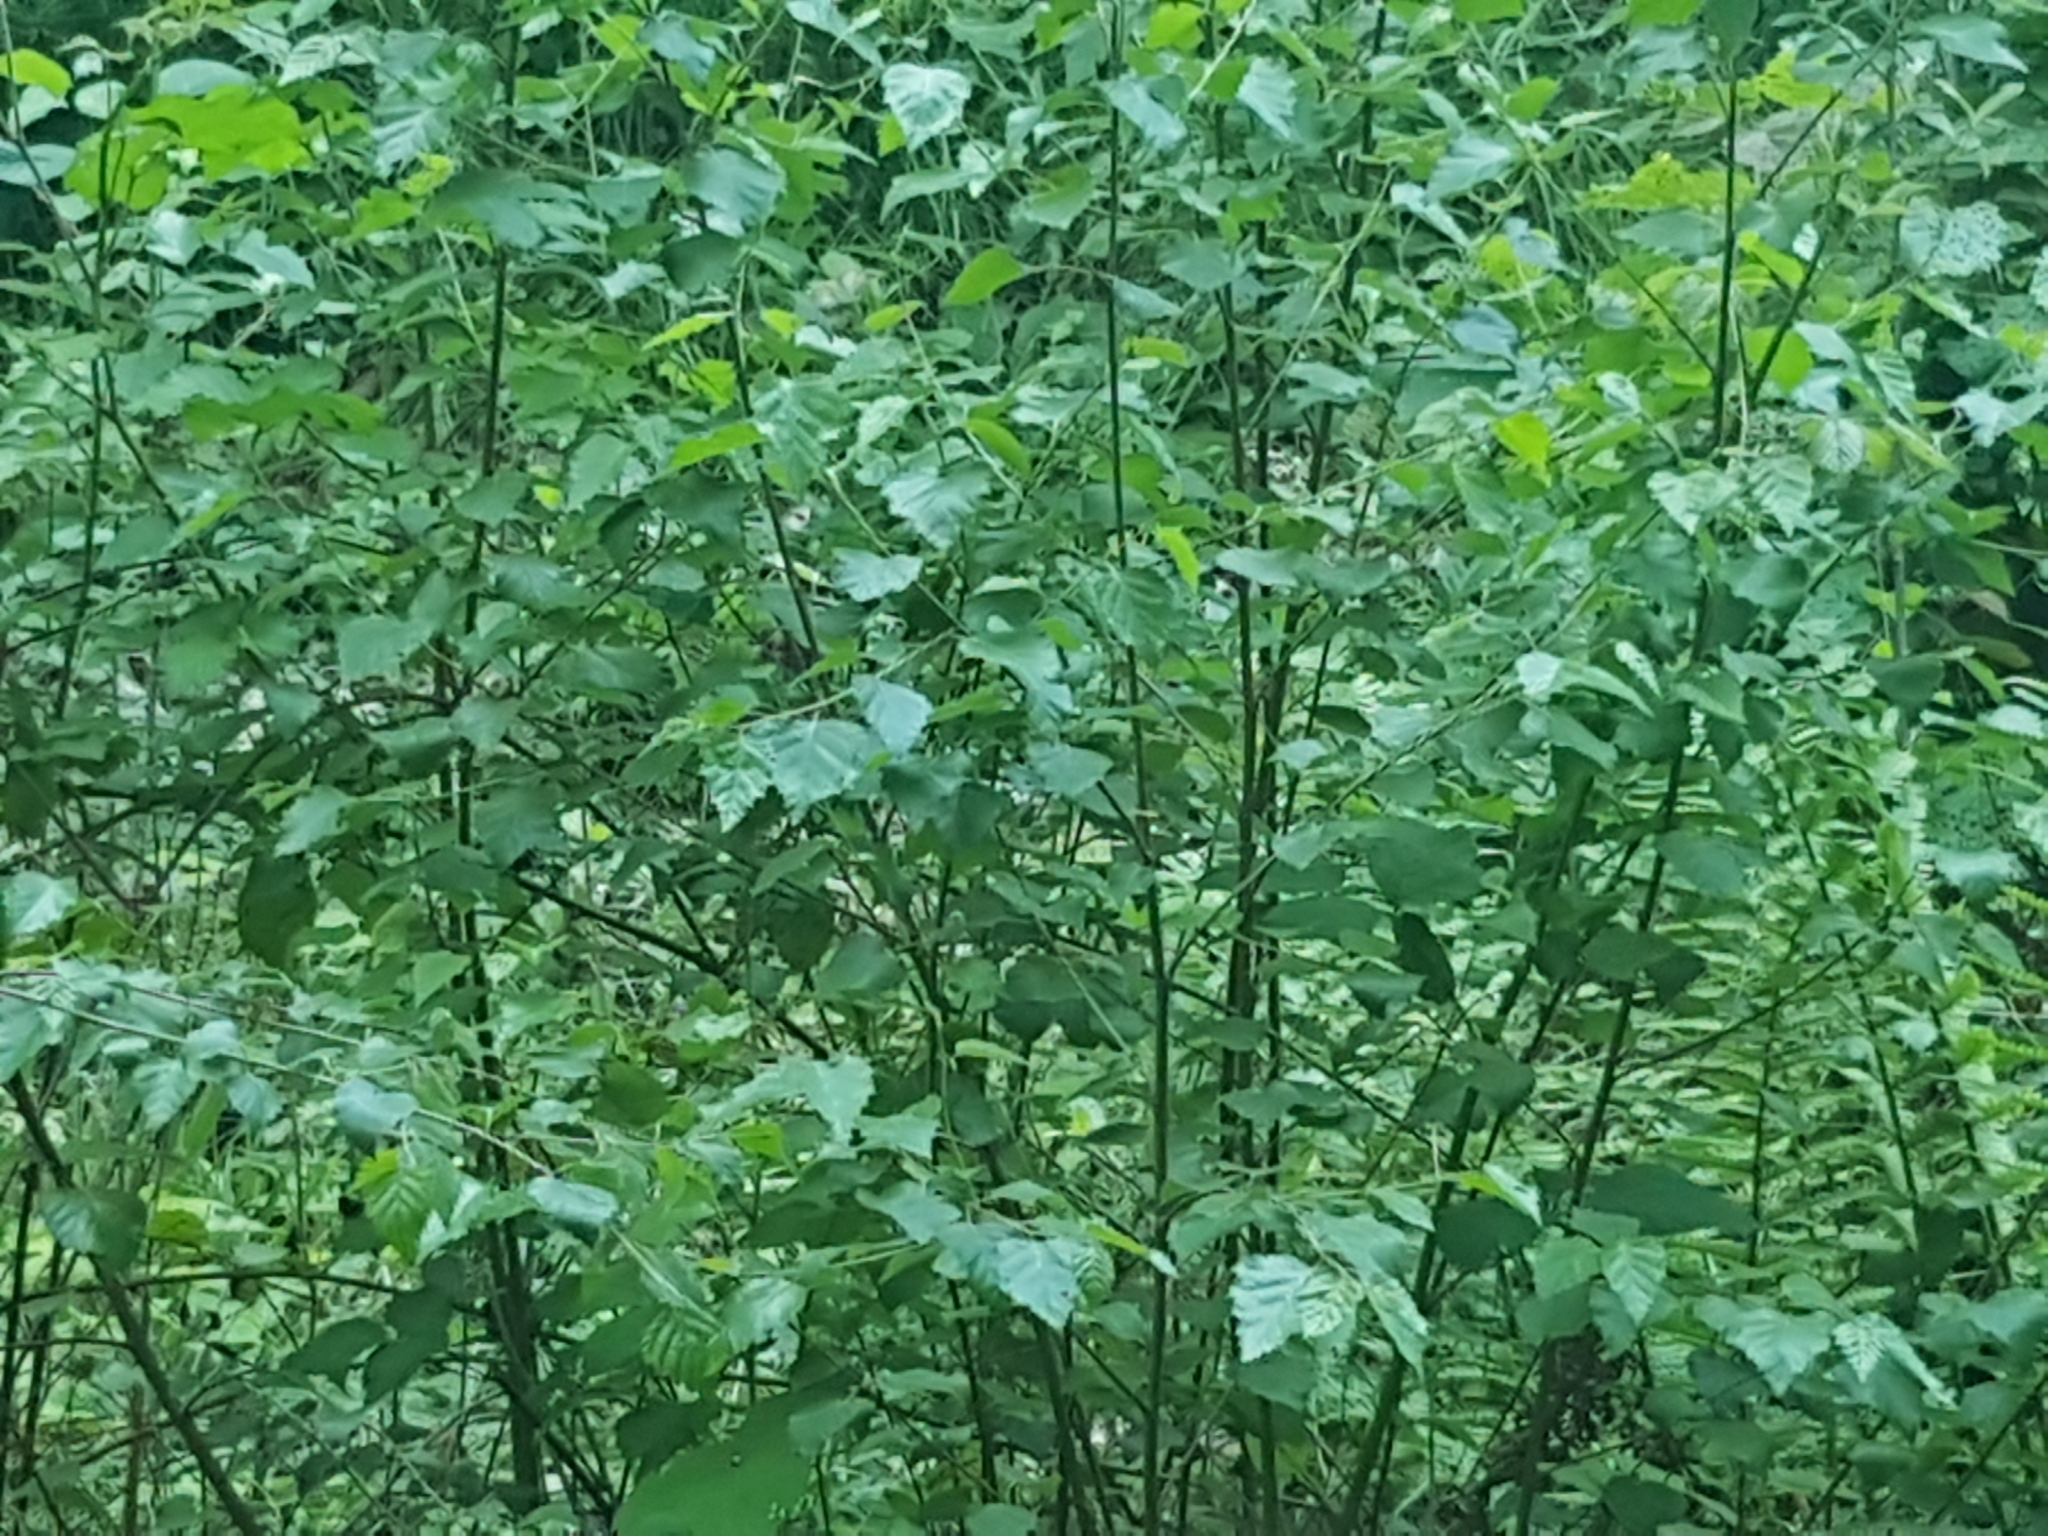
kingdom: Plantae
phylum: Tracheophyta
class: Magnoliopsida
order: Fagales
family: Betulaceae
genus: Betula
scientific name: Betula pubescens
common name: Downy birch
